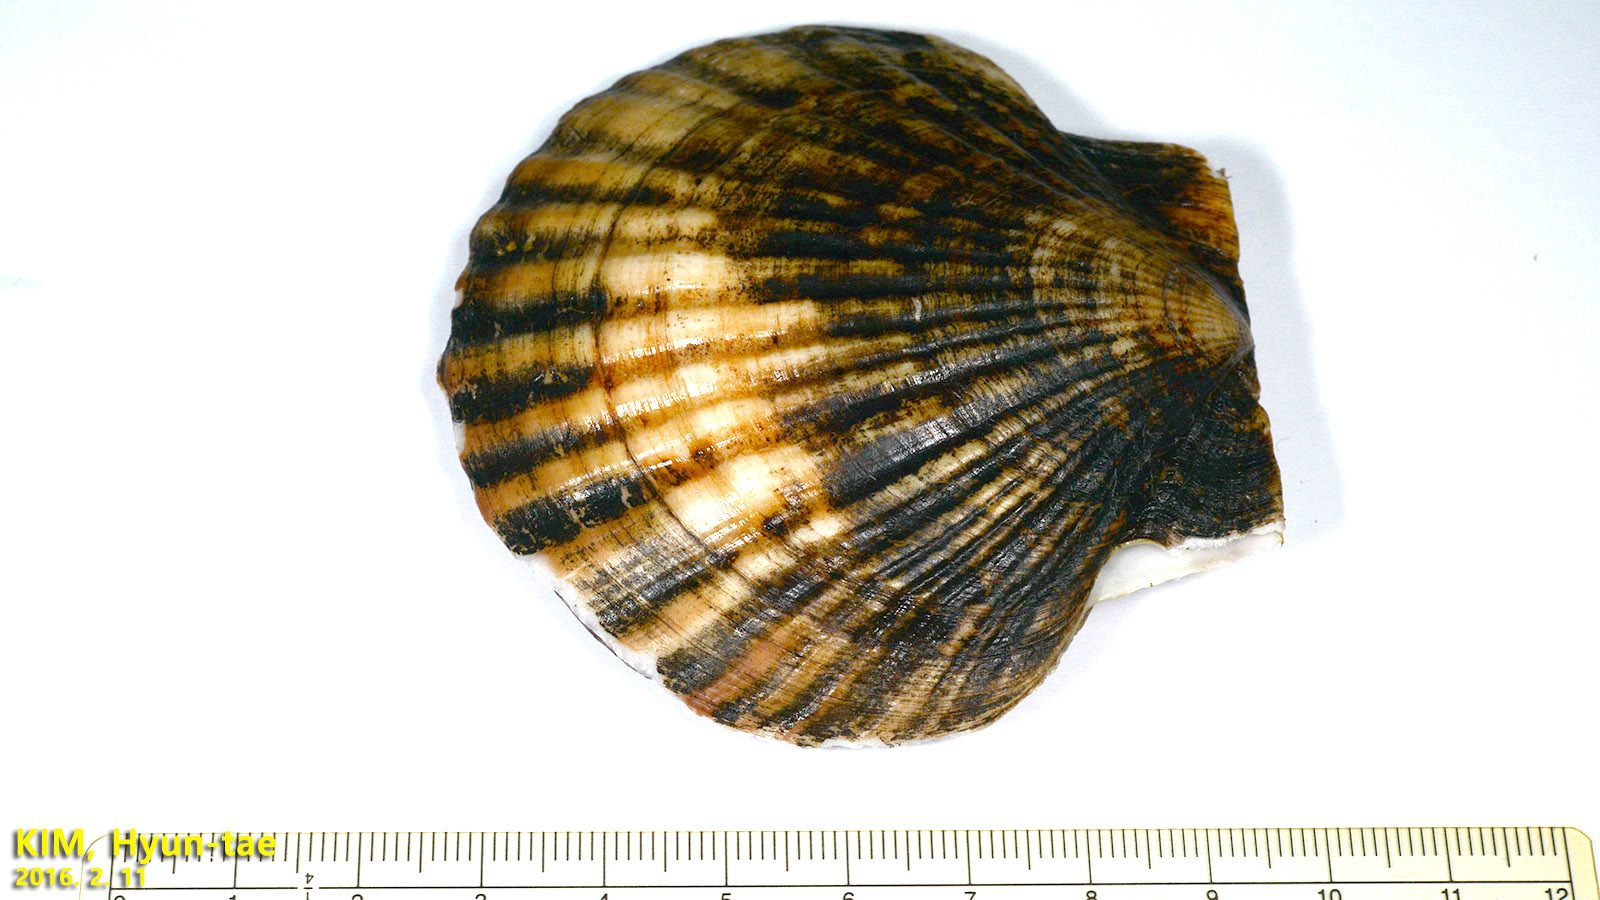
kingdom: Animalia
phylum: Mollusca
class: Bivalvia
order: Pectinida
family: Pectinidae
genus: Mizuhopecten
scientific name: Mizuhopecten yessoensis
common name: Ezo giant scallop
